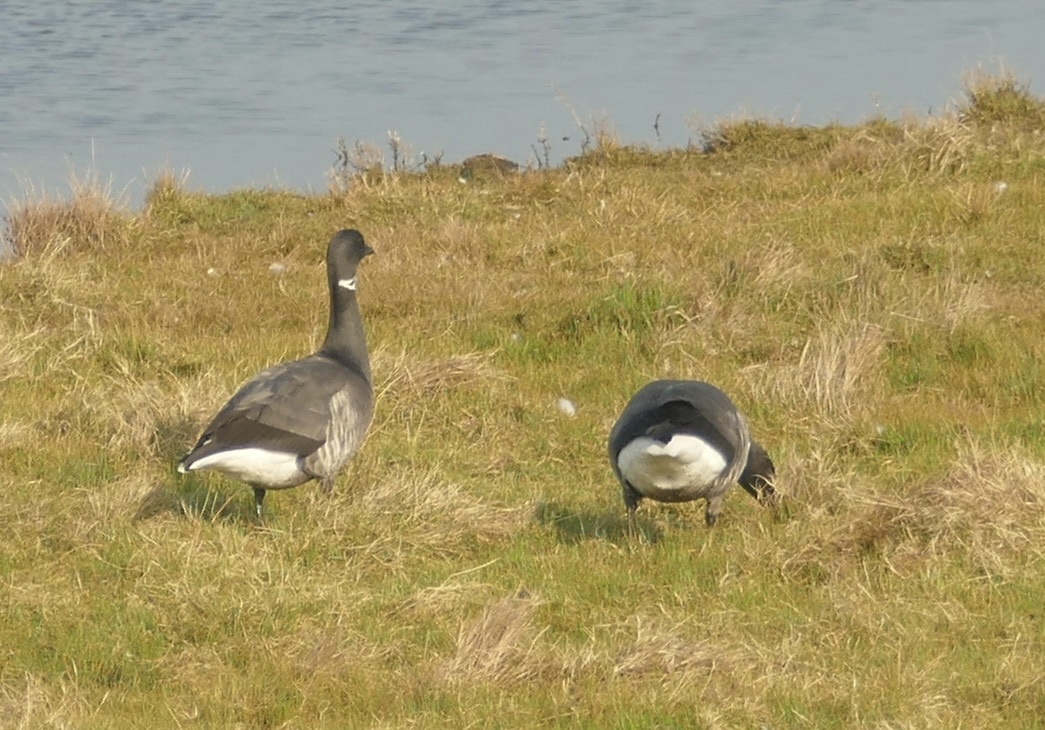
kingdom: Animalia
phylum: Chordata
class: Aves
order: Anseriformes
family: Anatidae
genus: Branta
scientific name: Branta bernicla
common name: Brant goose
